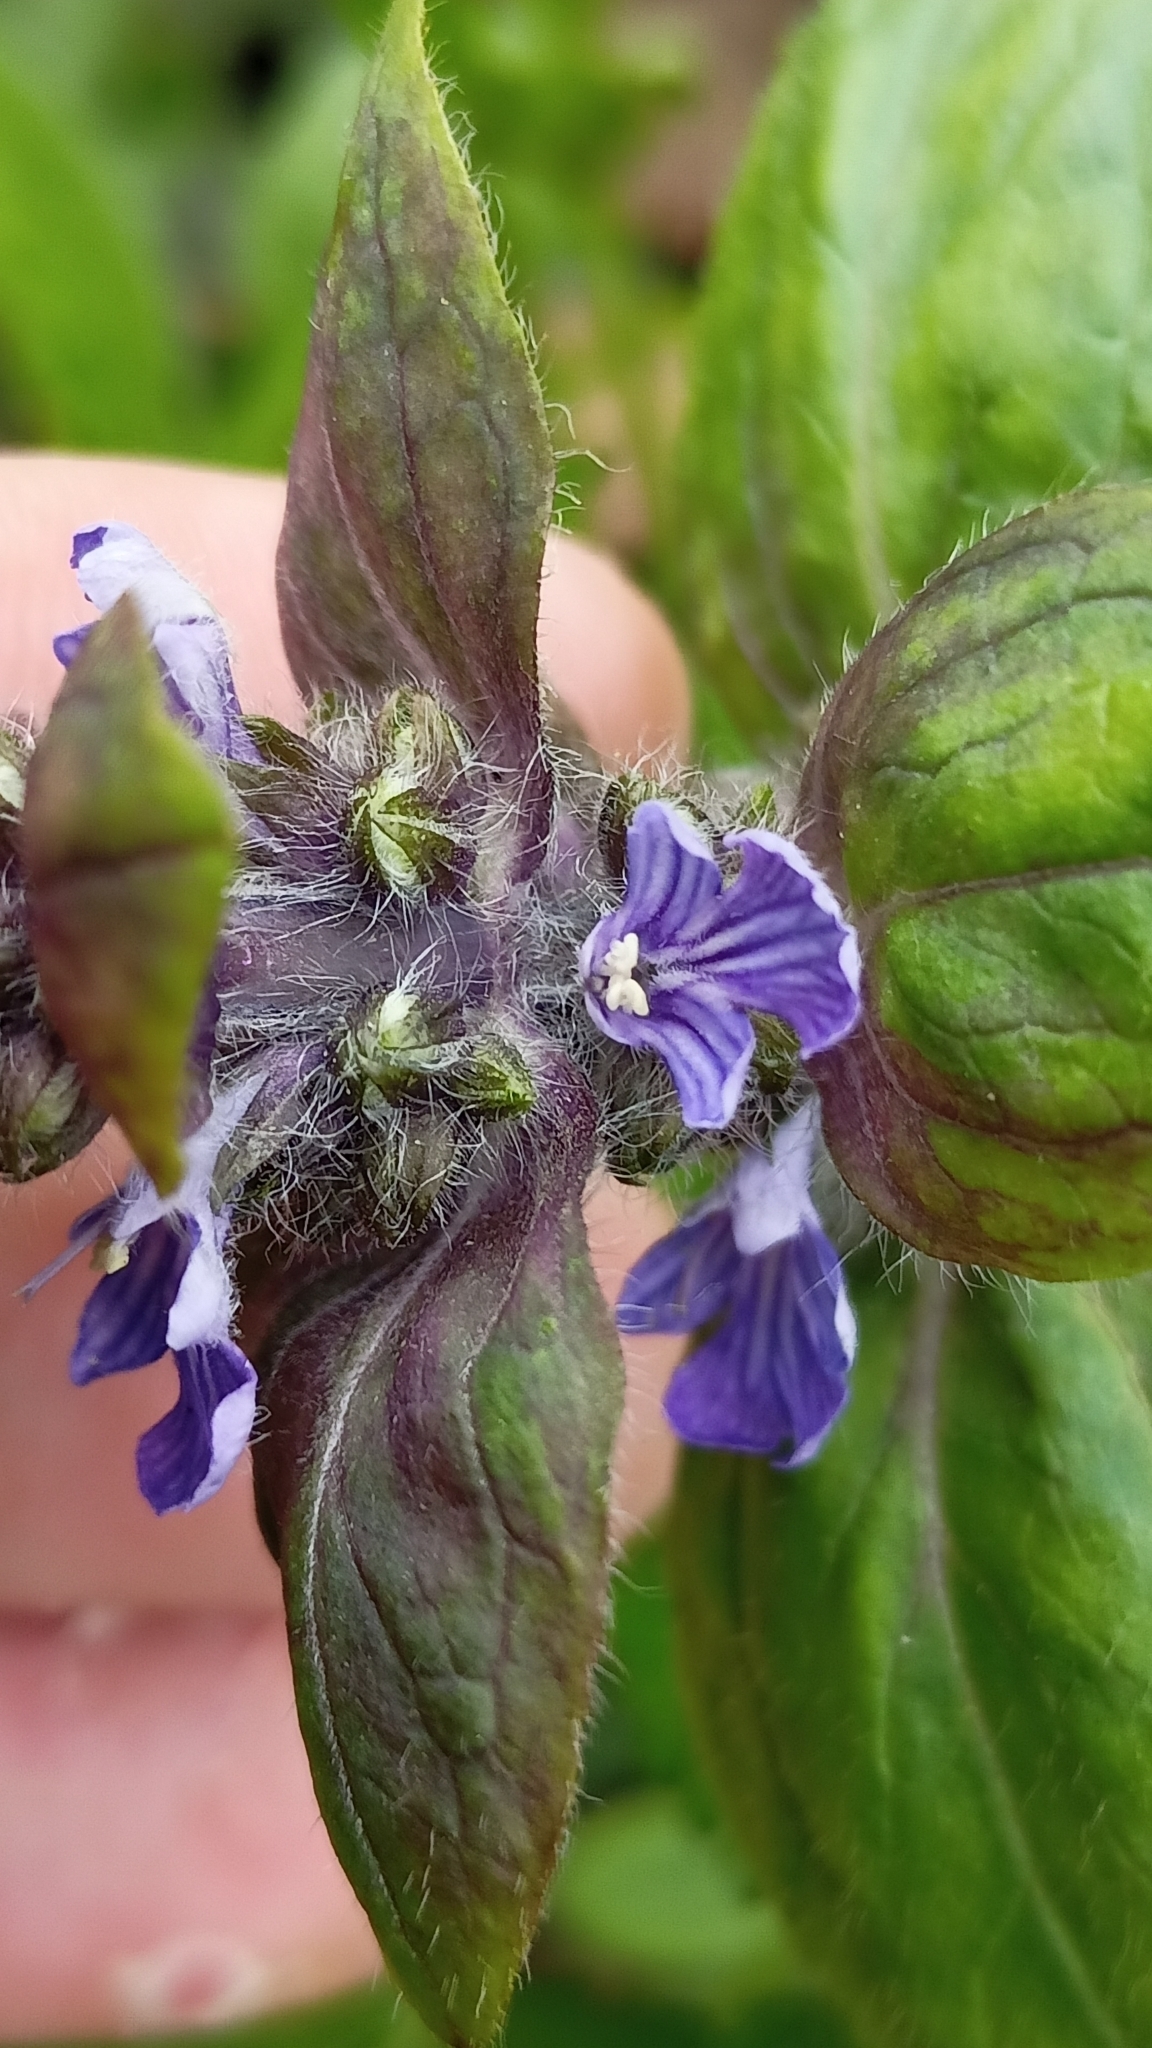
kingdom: Plantae
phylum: Tracheophyta
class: Magnoliopsida
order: Lamiales
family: Lamiaceae
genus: Ajuga
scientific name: Ajuga reptans
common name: Bugle
